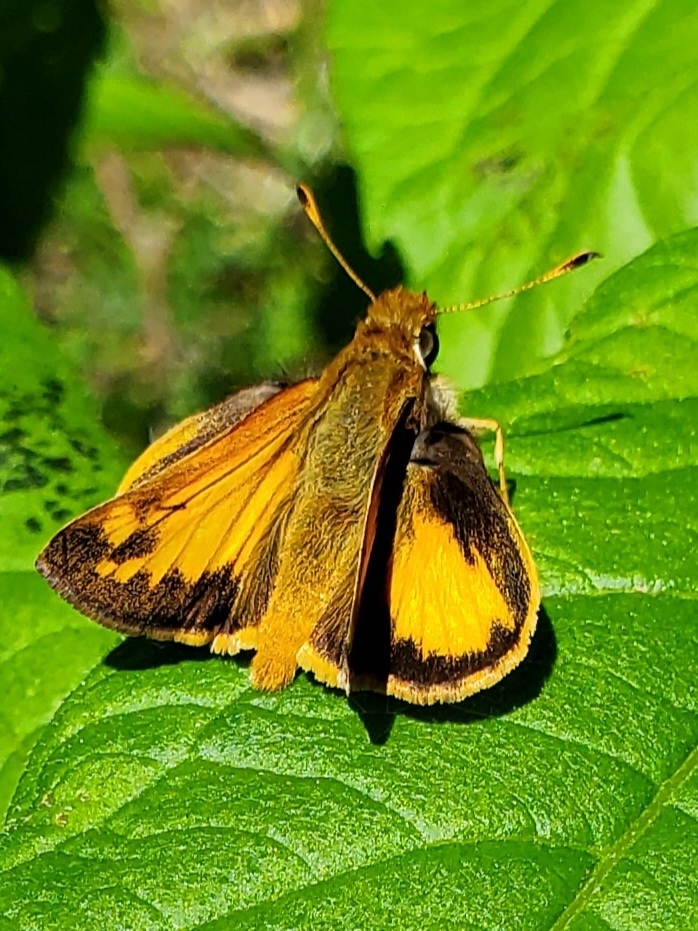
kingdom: Animalia
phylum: Arthropoda
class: Insecta
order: Lepidoptera
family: Hesperiidae
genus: Lon
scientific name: Lon zabulon
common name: Zabulon skipper
